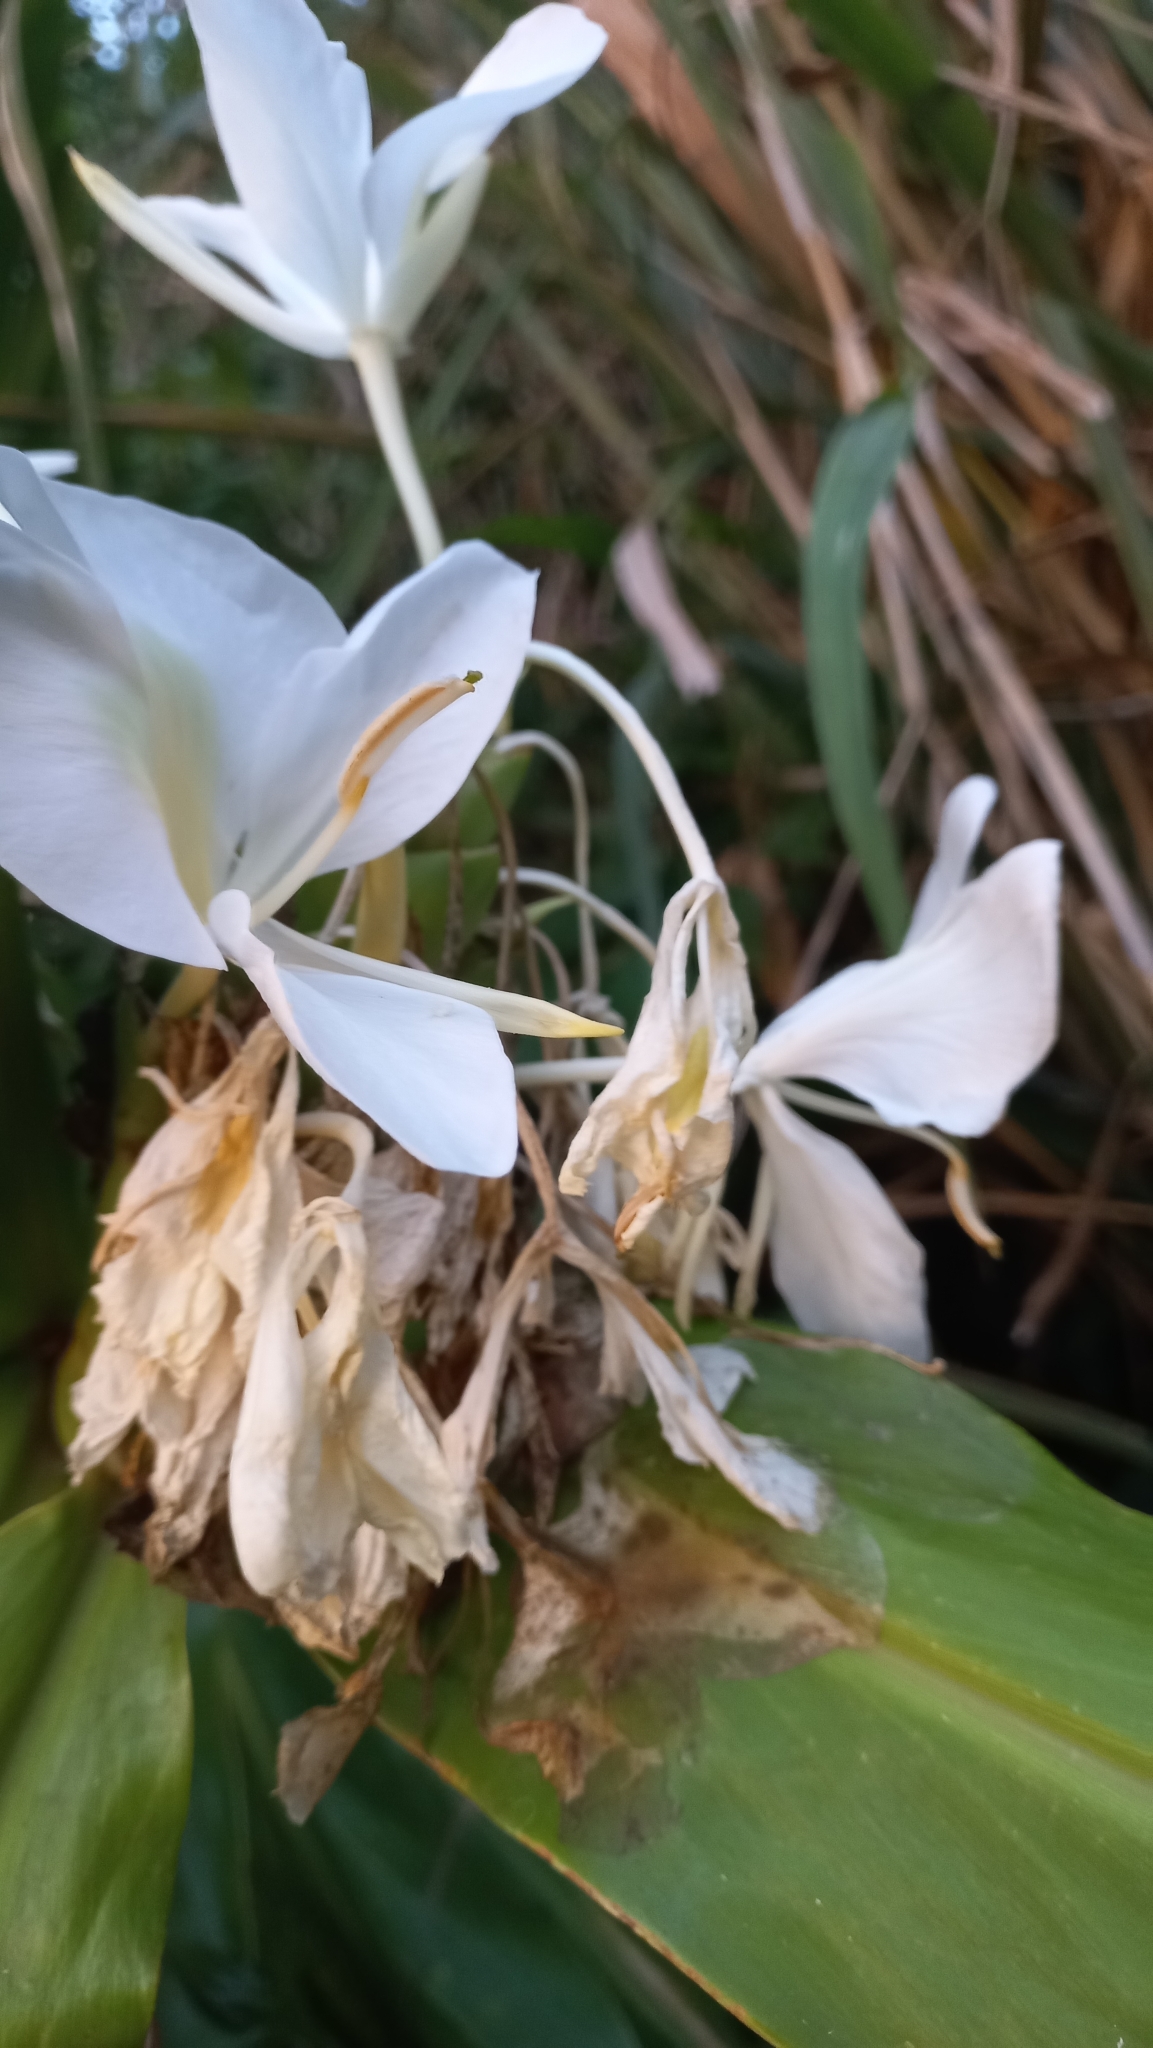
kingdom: Plantae
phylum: Tracheophyta
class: Liliopsida
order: Zingiberales
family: Zingiberaceae
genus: Hedychium
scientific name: Hedychium coronarium
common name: White garland-lily
